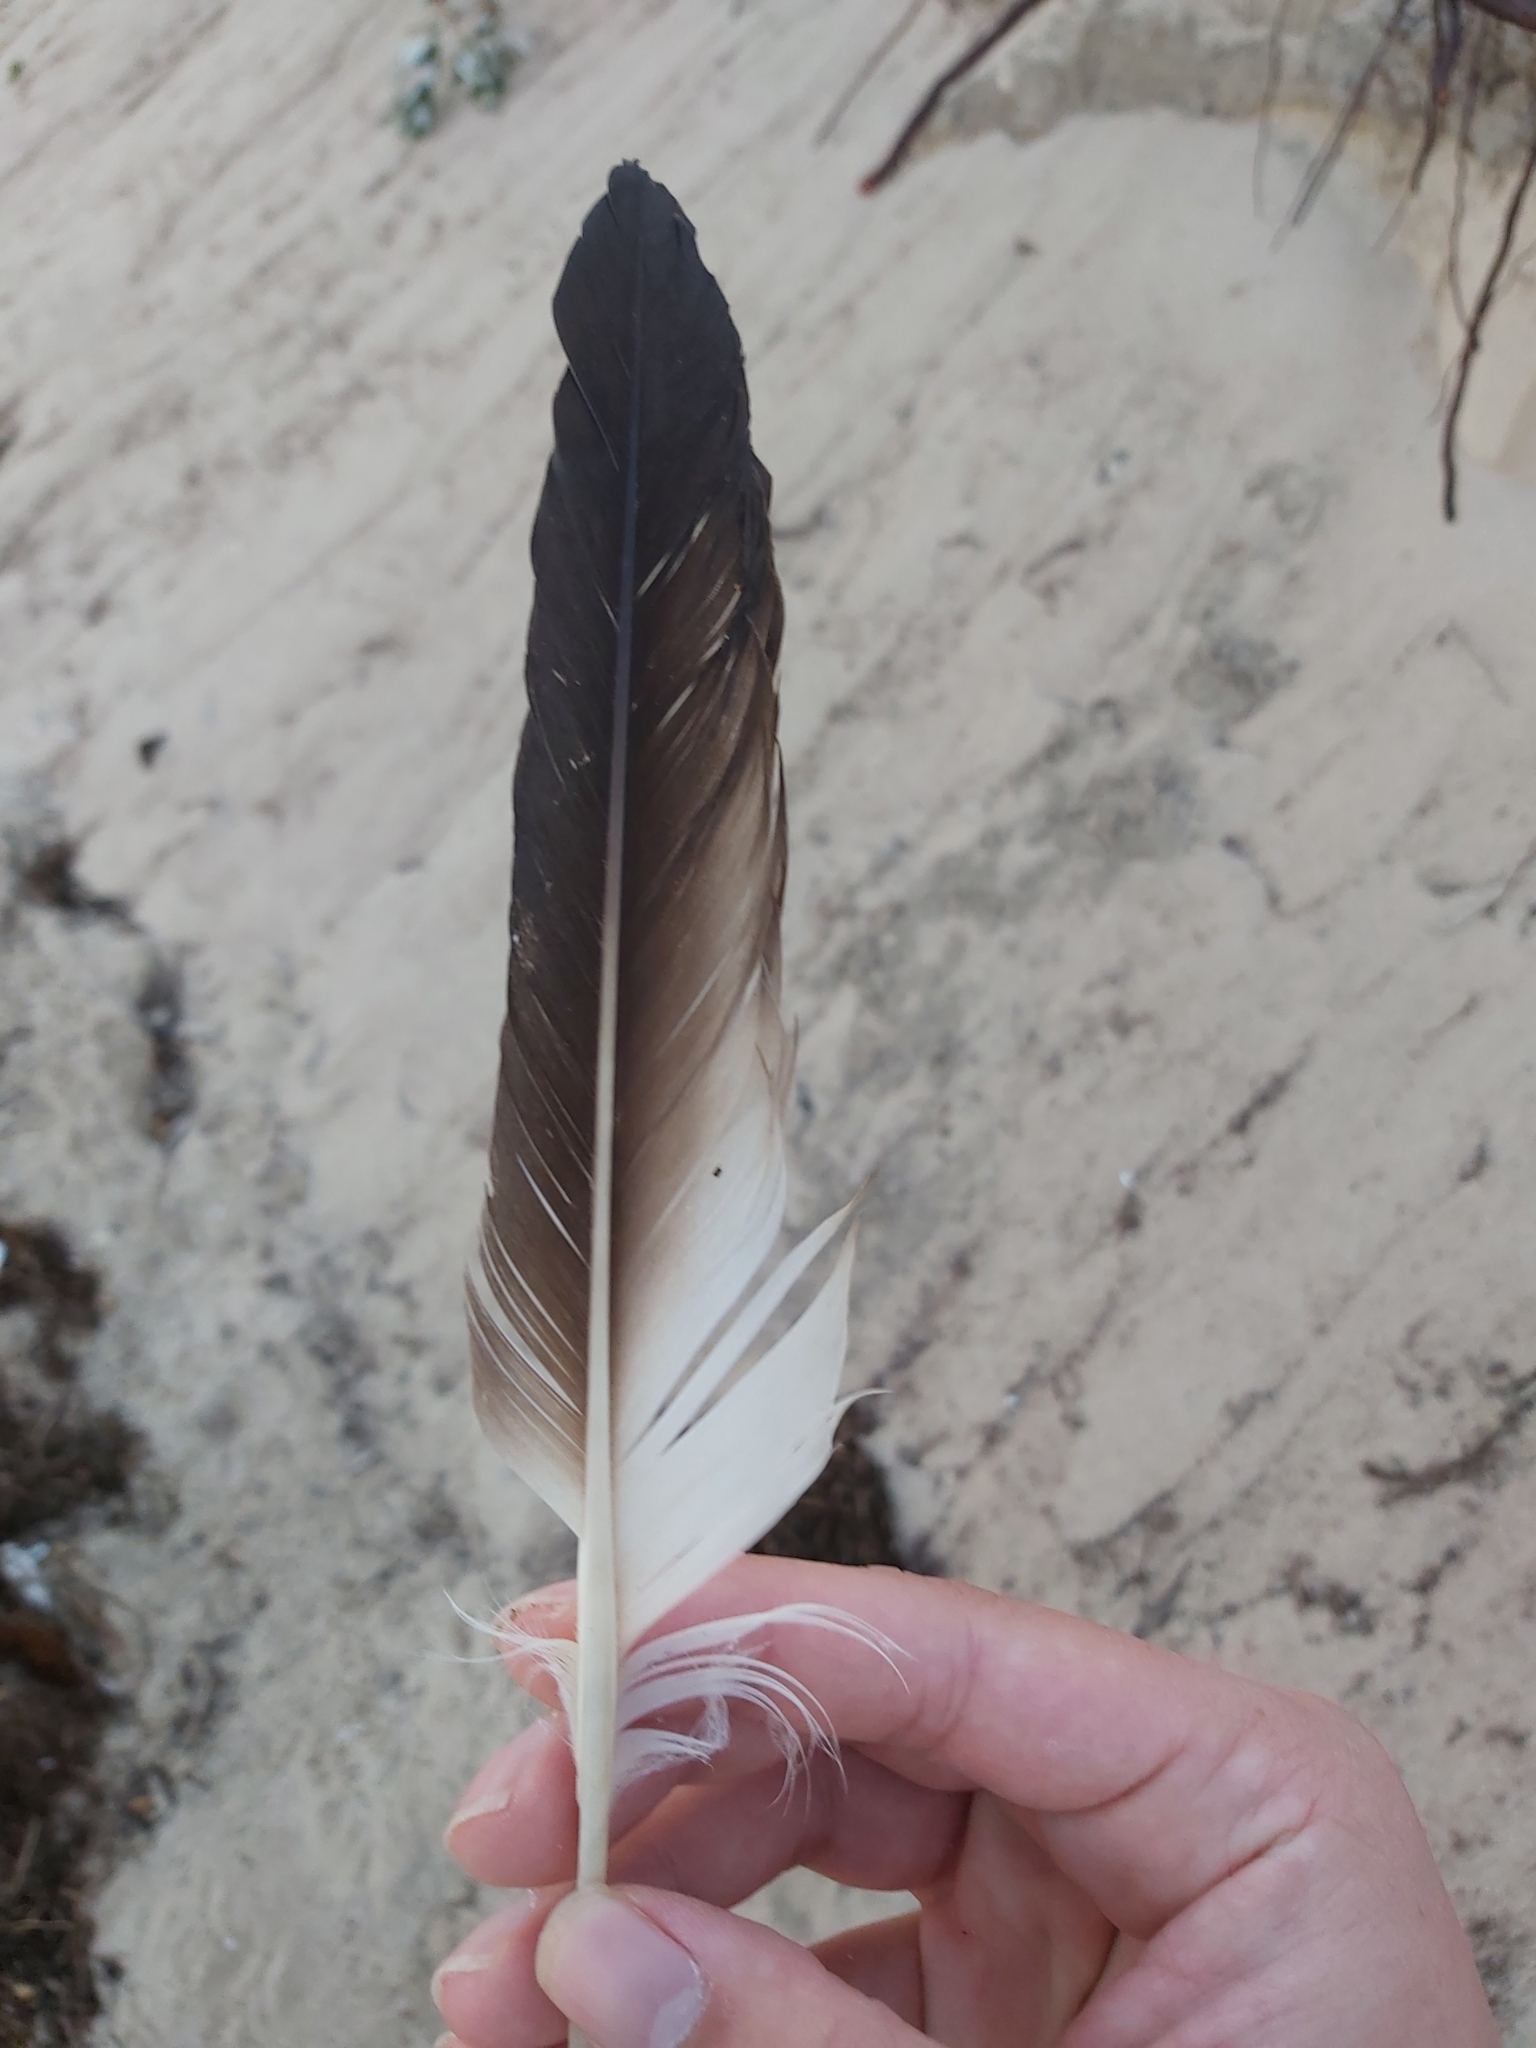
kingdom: Animalia
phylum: Chordata
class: Aves
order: Suliformes
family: Sulidae
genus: Morus
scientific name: Morus serrator
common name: Australasian gannet
